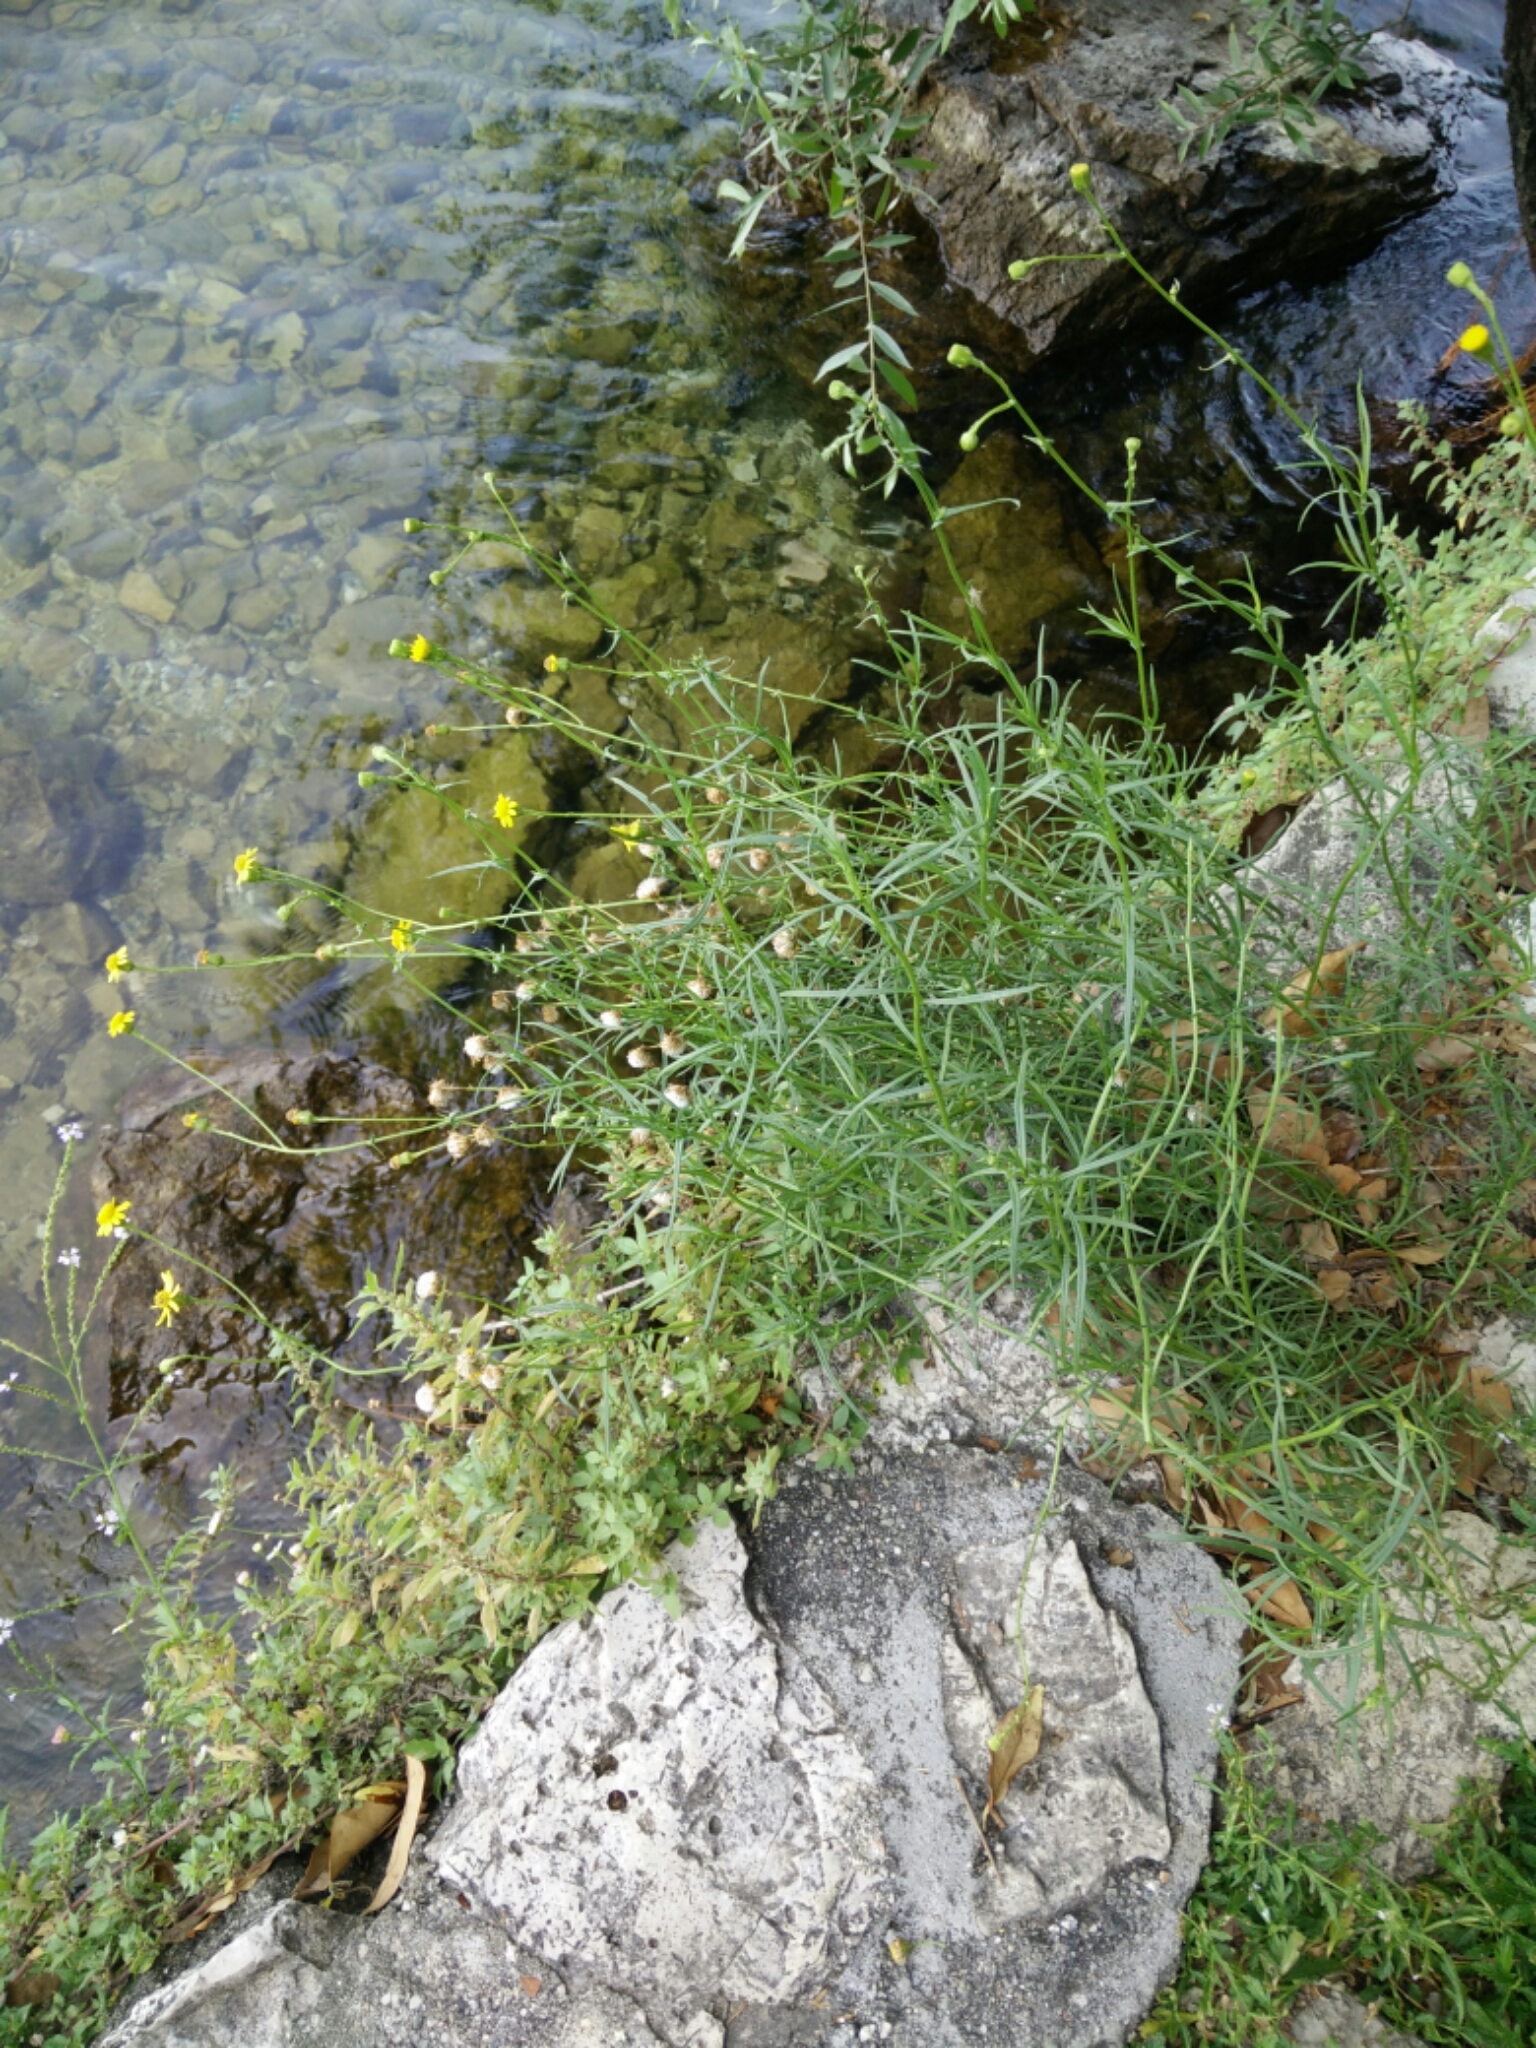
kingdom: Plantae
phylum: Tracheophyta
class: Magnoliopsida
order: Asterales
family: Asteraceae
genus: Senecio
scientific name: Senecio inaequidens
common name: Narrow-leaved ragwort
